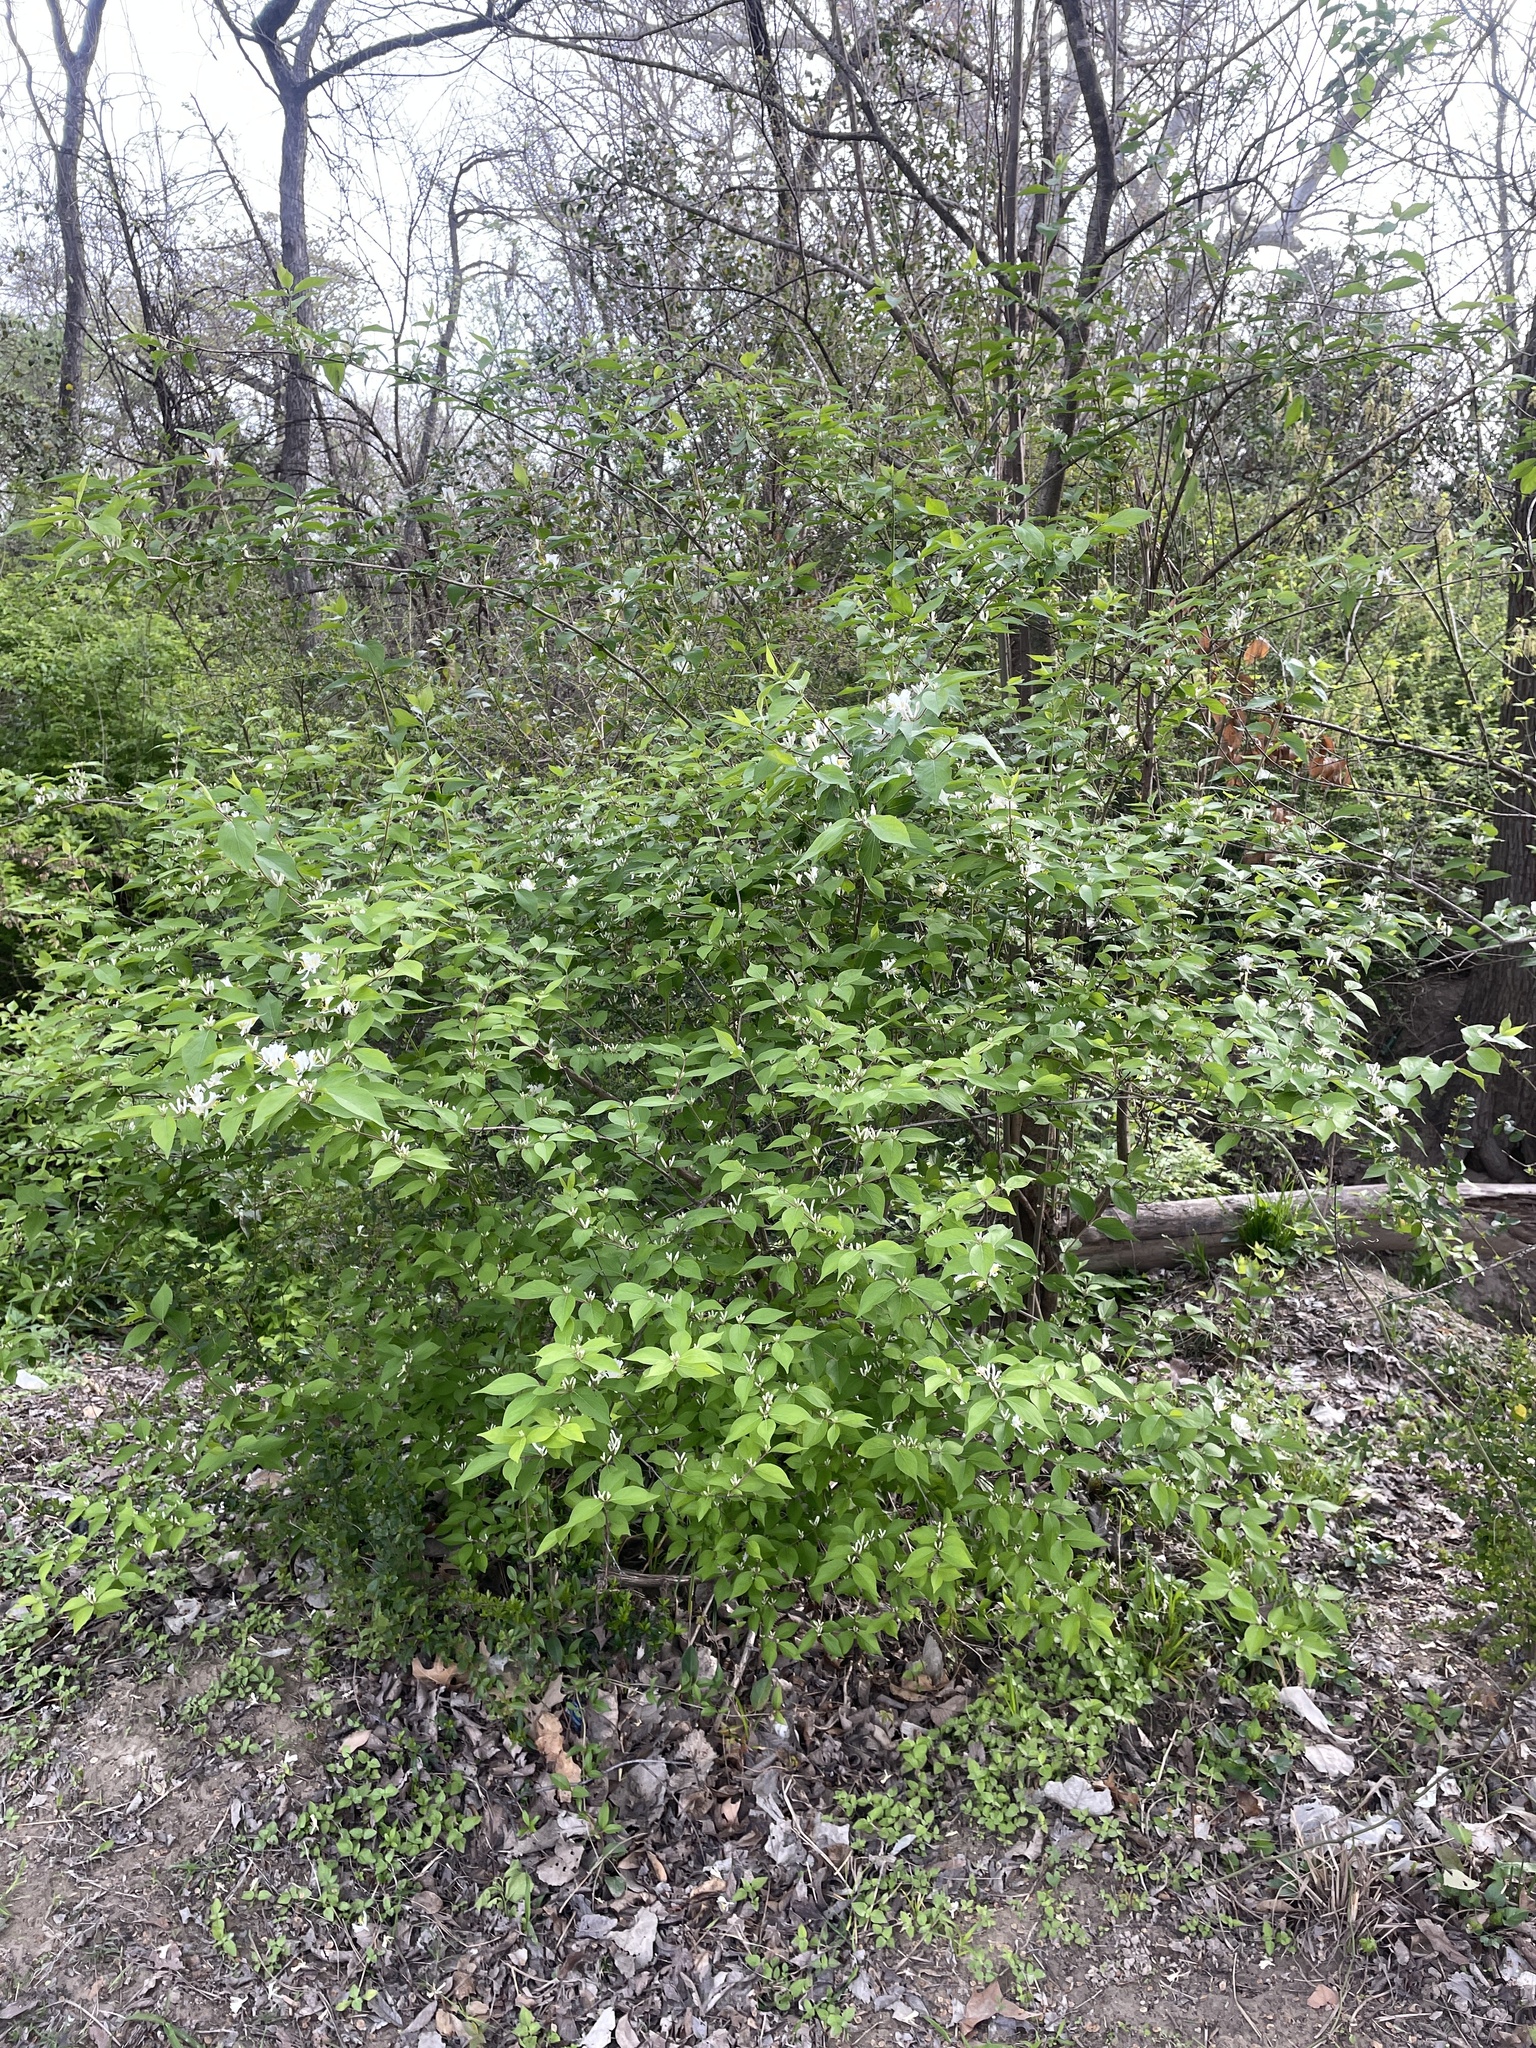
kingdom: Plantae
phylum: Tracheophyta
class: Magnoliopsida
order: Dipsacales
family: Caprifoliaceae
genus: Lonicera
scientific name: Lonicera maackii
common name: Amur honeysuckle
